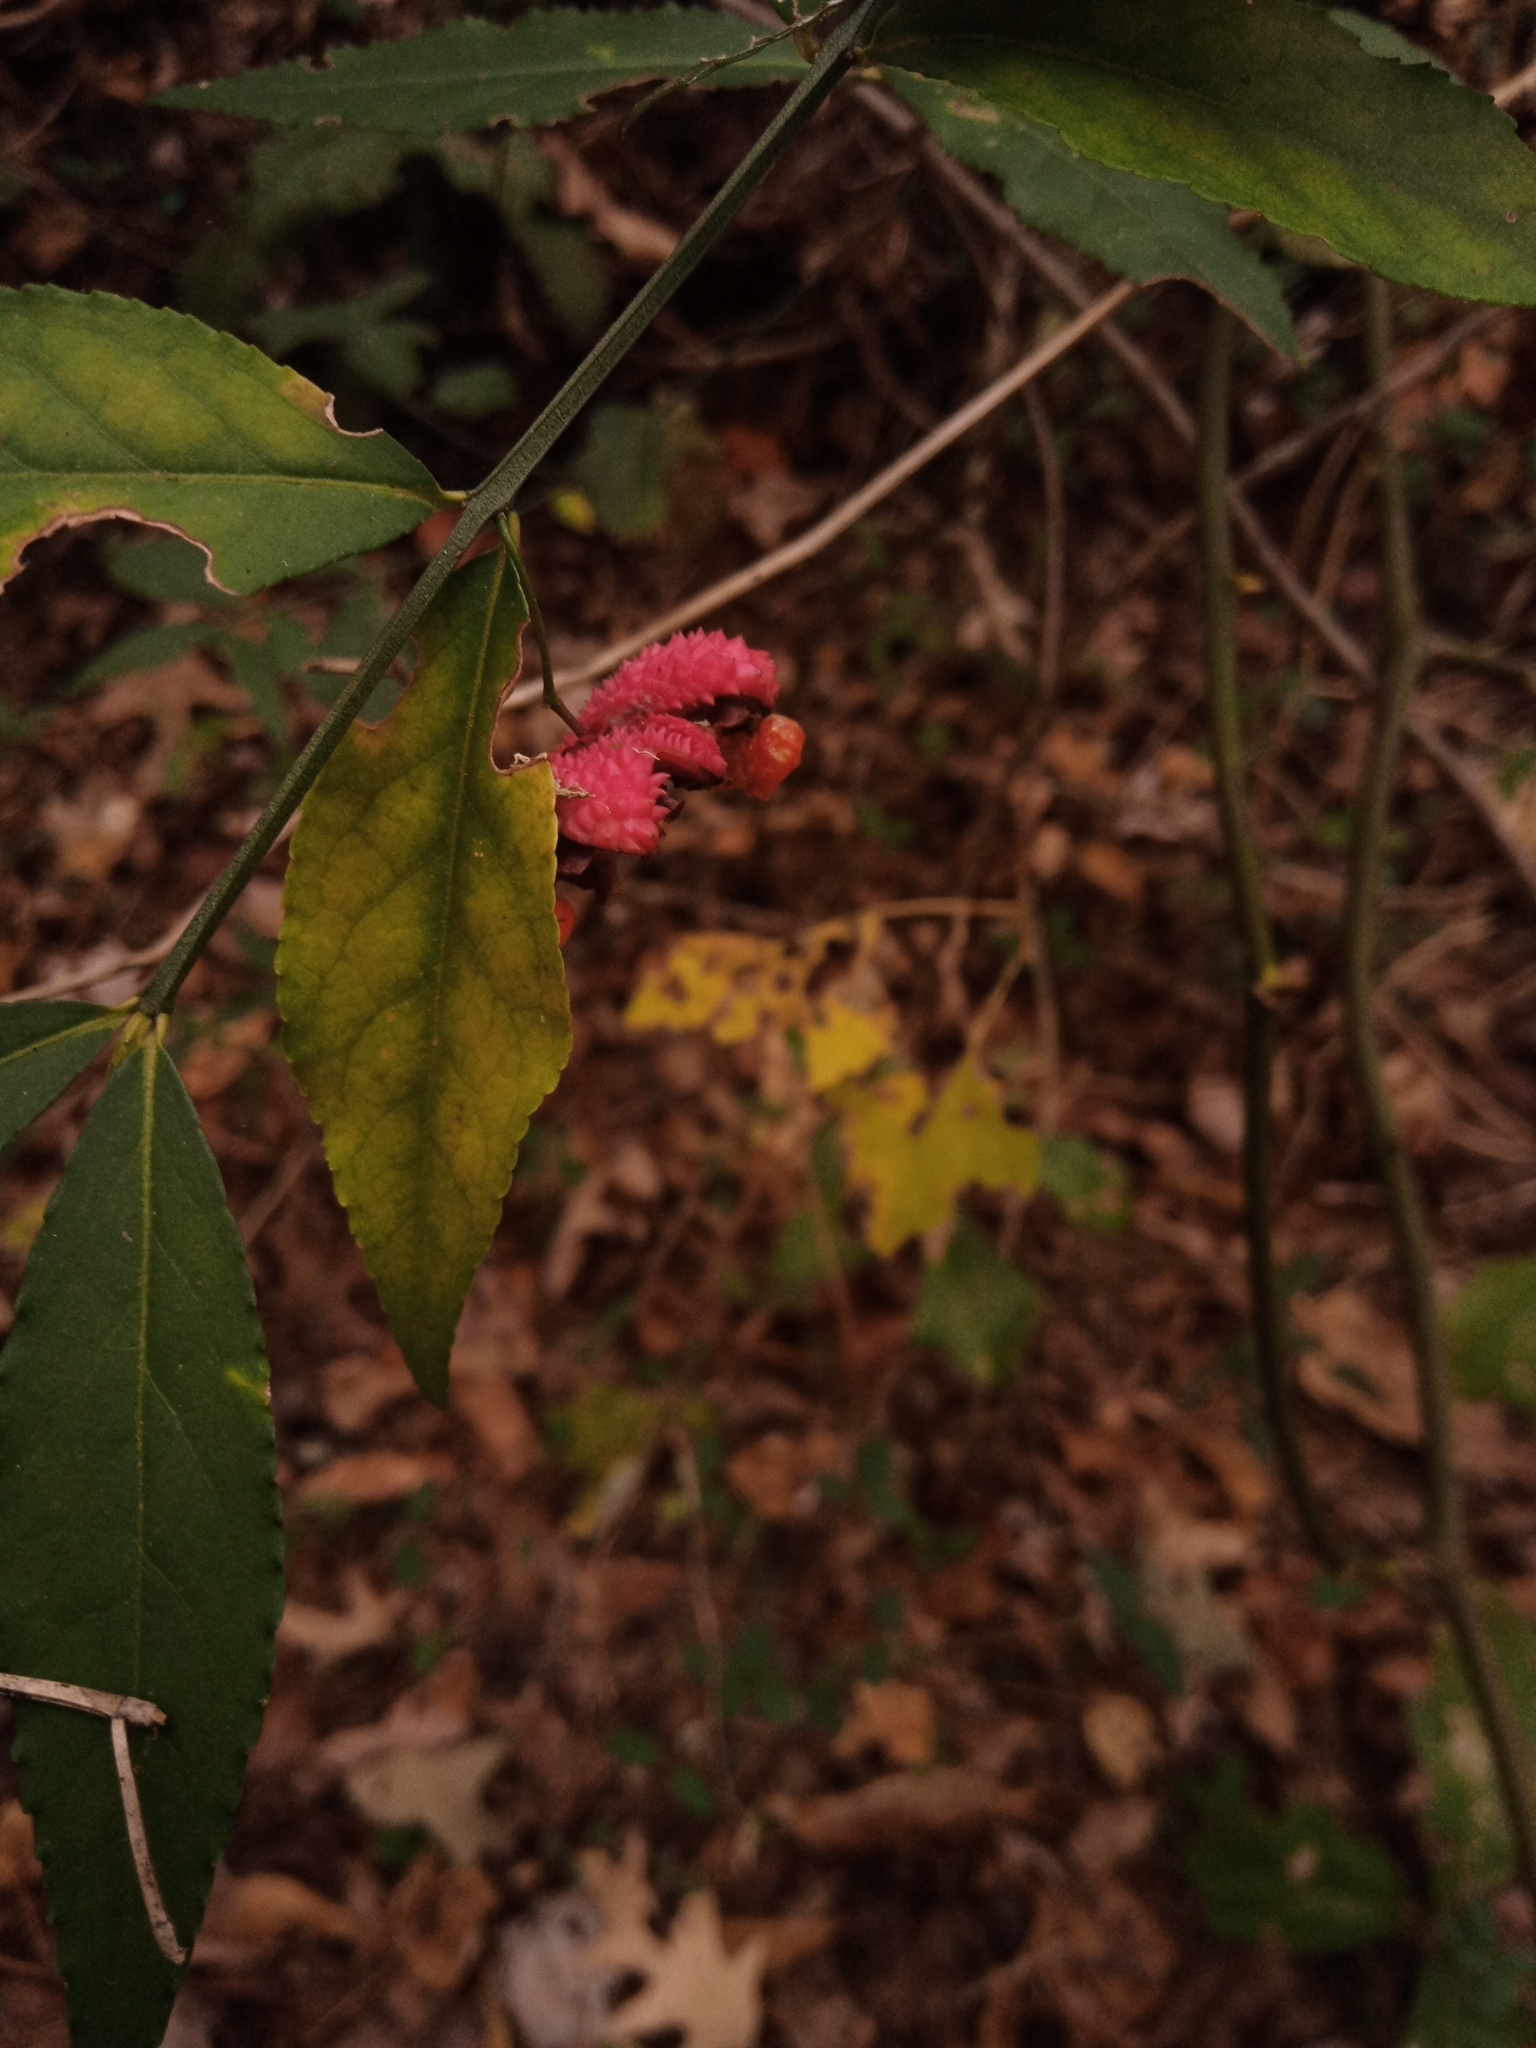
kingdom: Plantae
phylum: Tracheophyta
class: Magnoliopsida
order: Celastrales
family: Celastraceae
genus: Euonymus
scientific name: Euonymus americanus
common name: Bursting-heart
